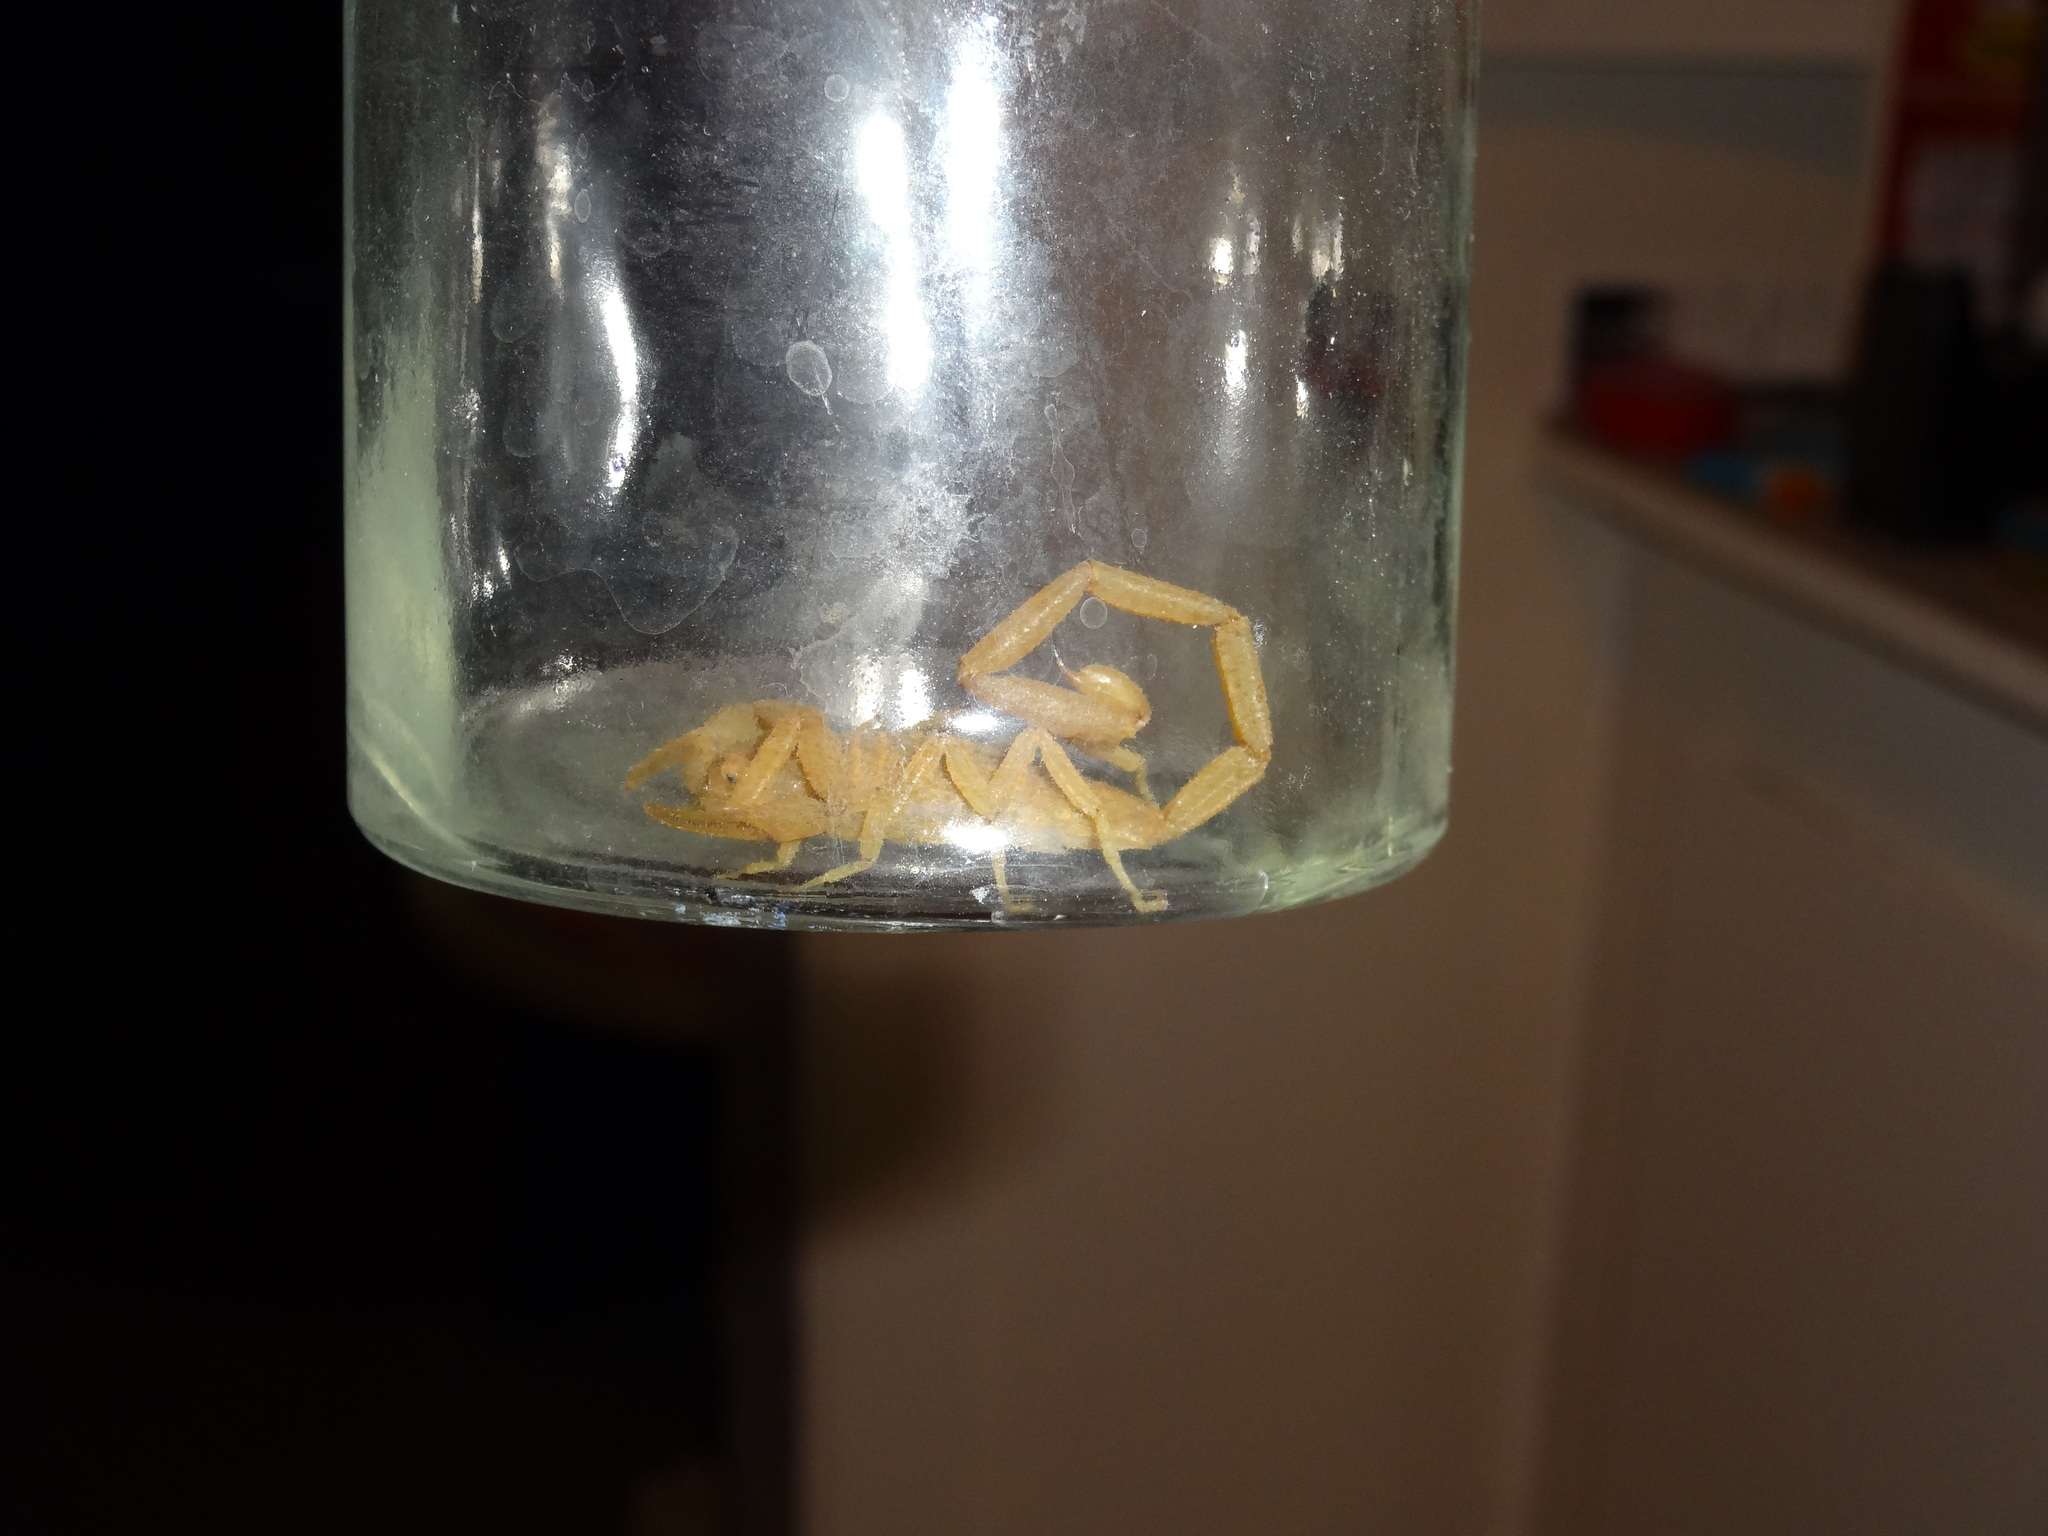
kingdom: Animalia
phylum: Arthropoda
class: Arachnida
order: Scorpiones
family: Buthidae
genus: Centruroides
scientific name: Centruroides sculpturatus
